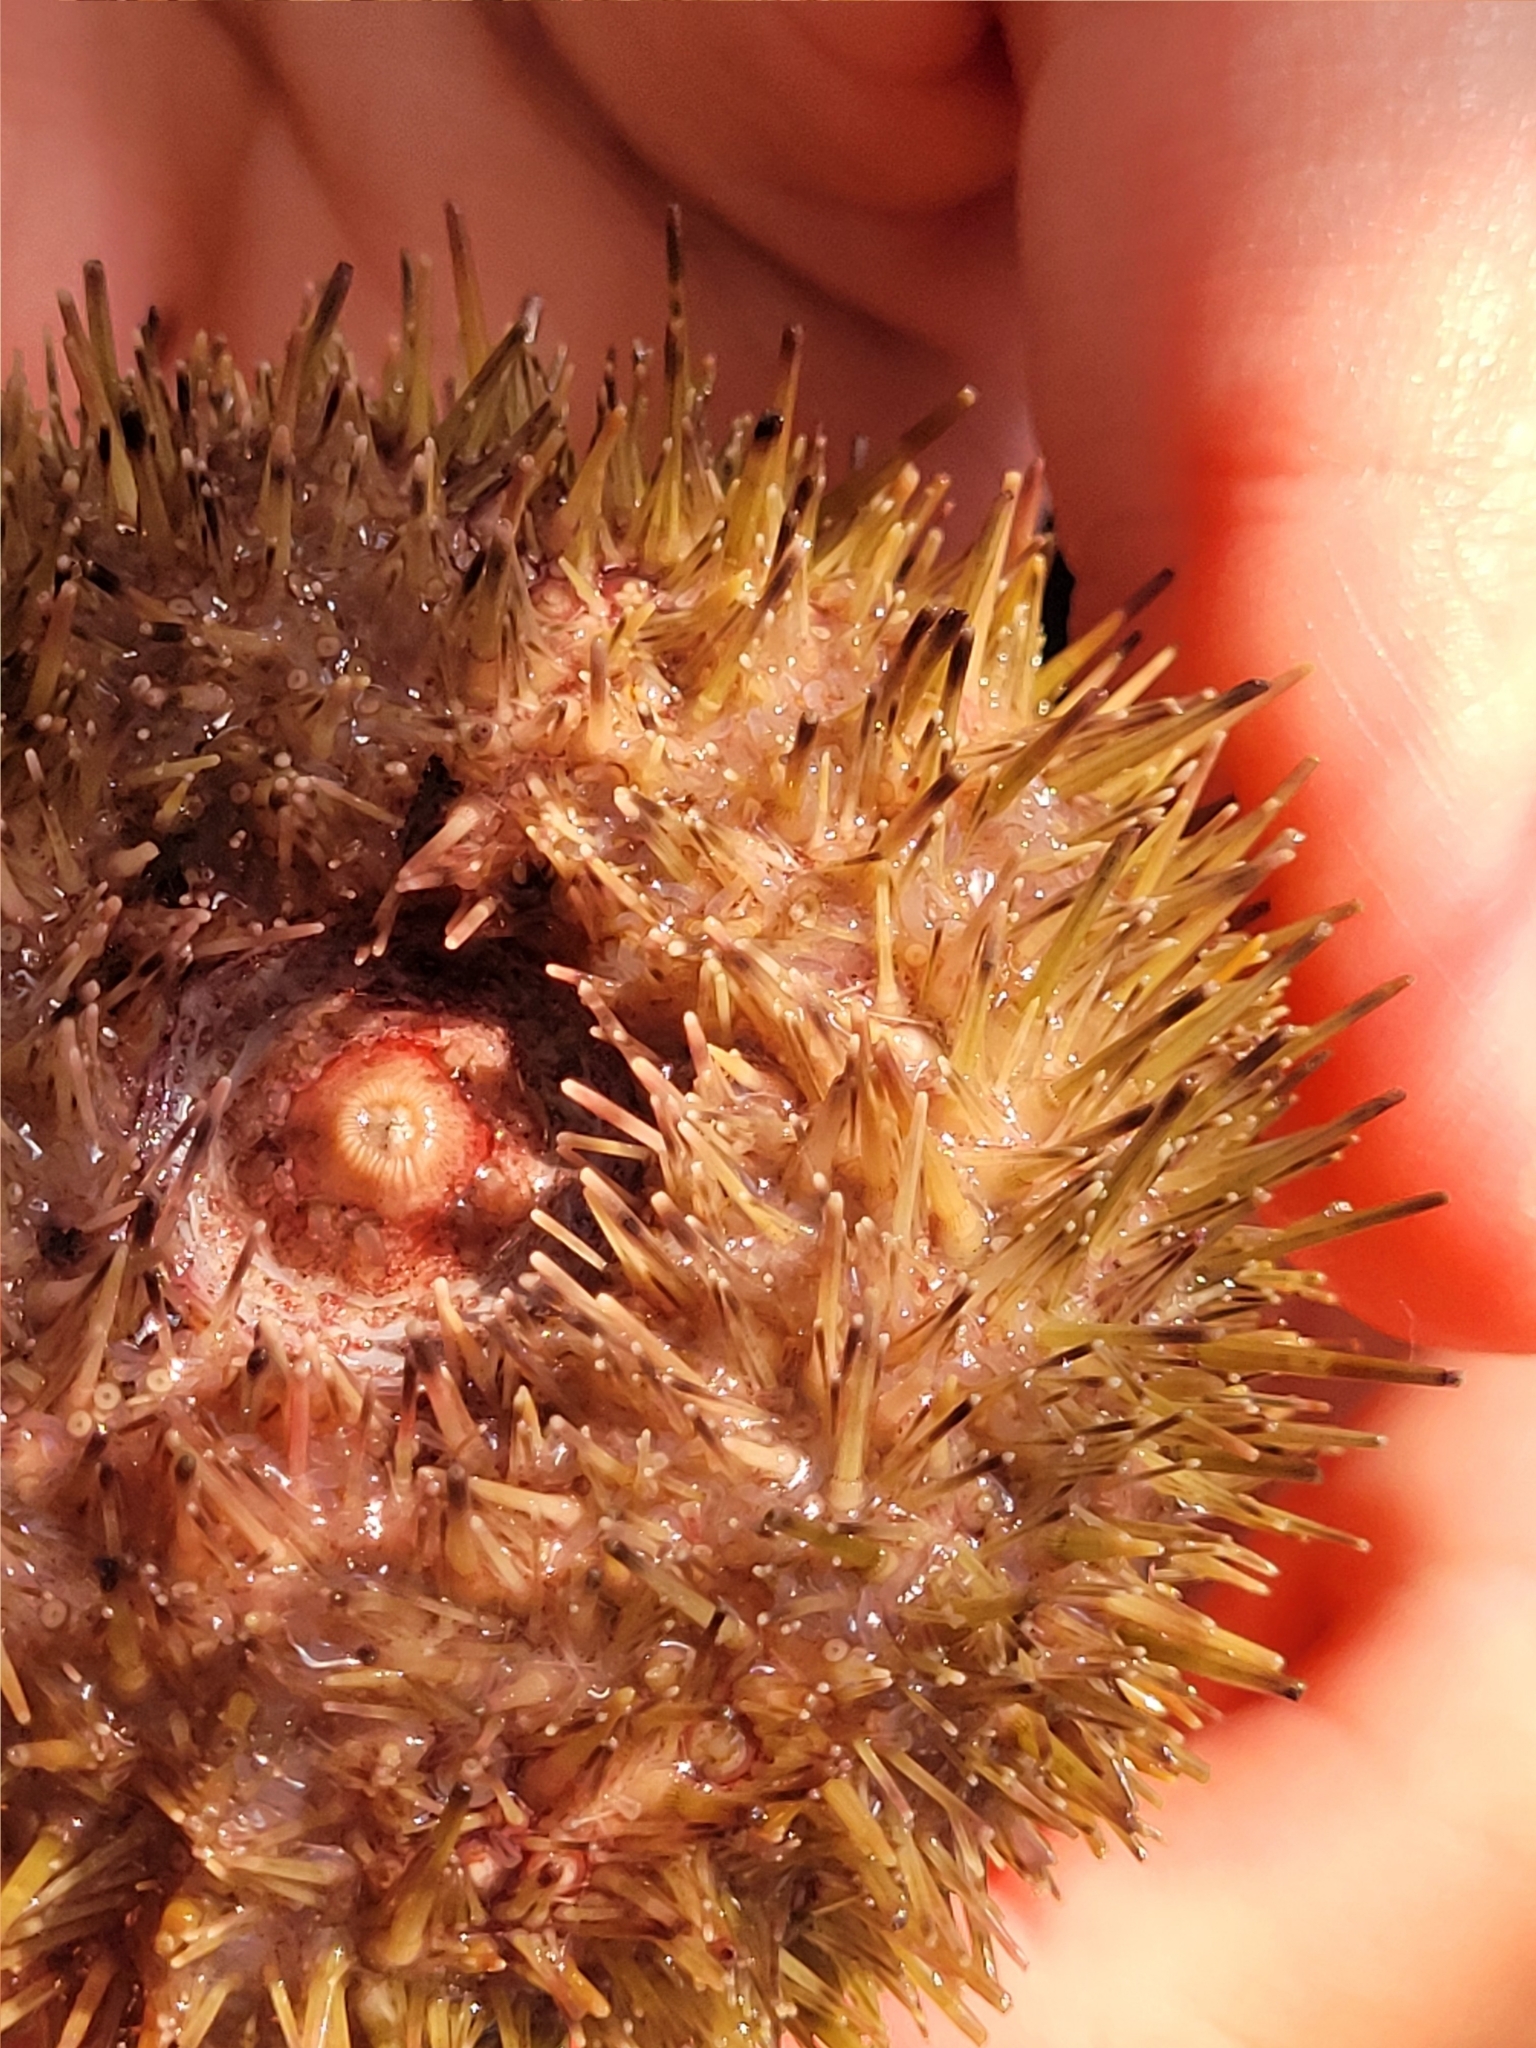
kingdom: Animalia
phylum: Echinodermata
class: Echinoidea
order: Camarodonta
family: Strongylocentrotidae
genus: Strongylocentrotus
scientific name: Strongylocentrotus droebachiensis
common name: Northern sea urchin
